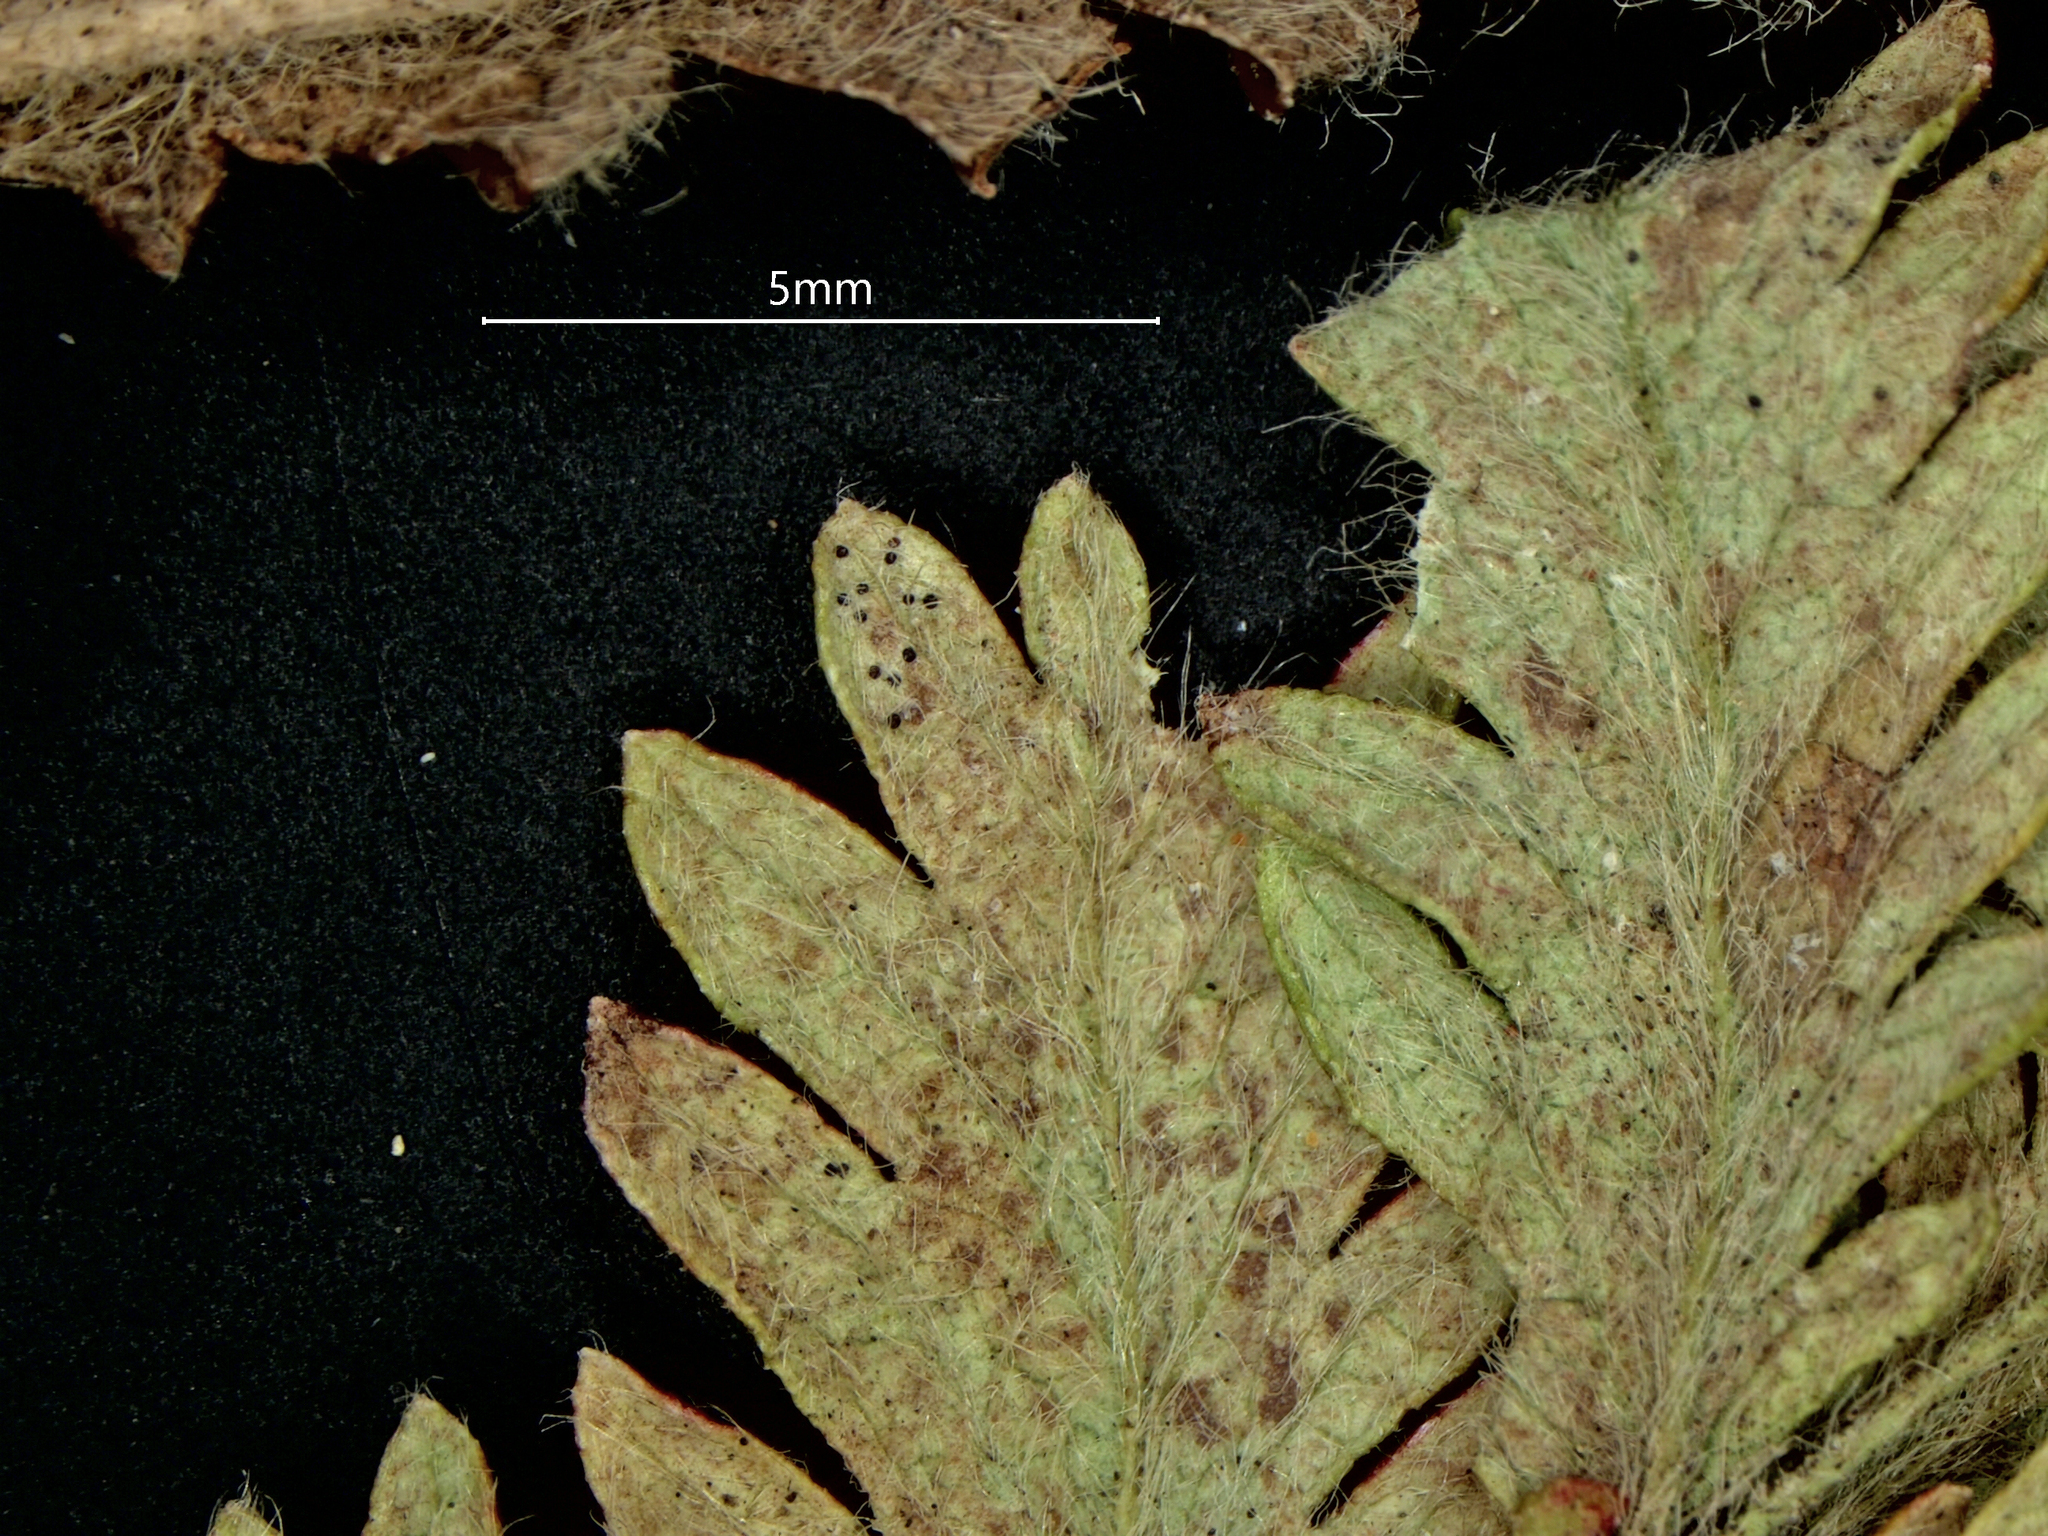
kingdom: Fungi
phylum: Ascomycota
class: Leotiomycetes
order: Helotiales
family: Erysiphaceae
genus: Erysiphe
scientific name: Erysiphe acaenae
